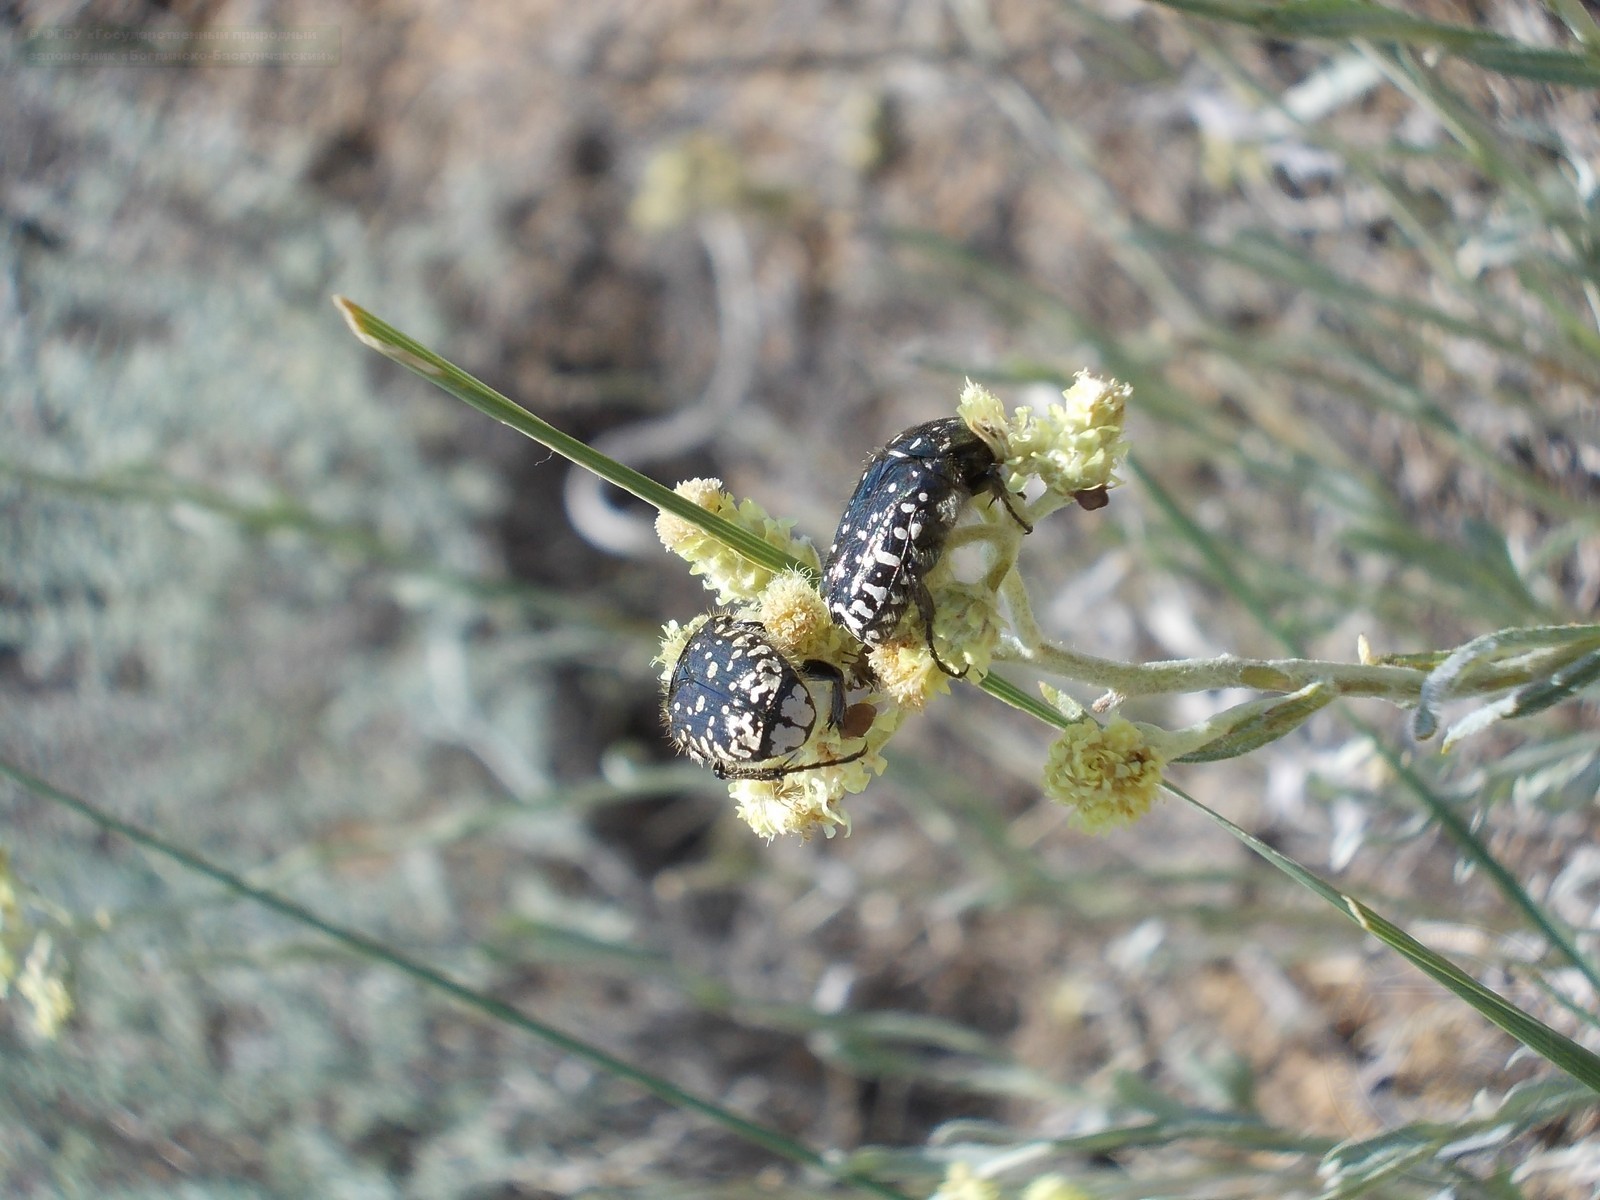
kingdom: Animalia
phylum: Arthropoda
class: Insecta
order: Coleoptera
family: Scarabaeidae
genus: Oxythyrea
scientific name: Oxythyrea funesta
